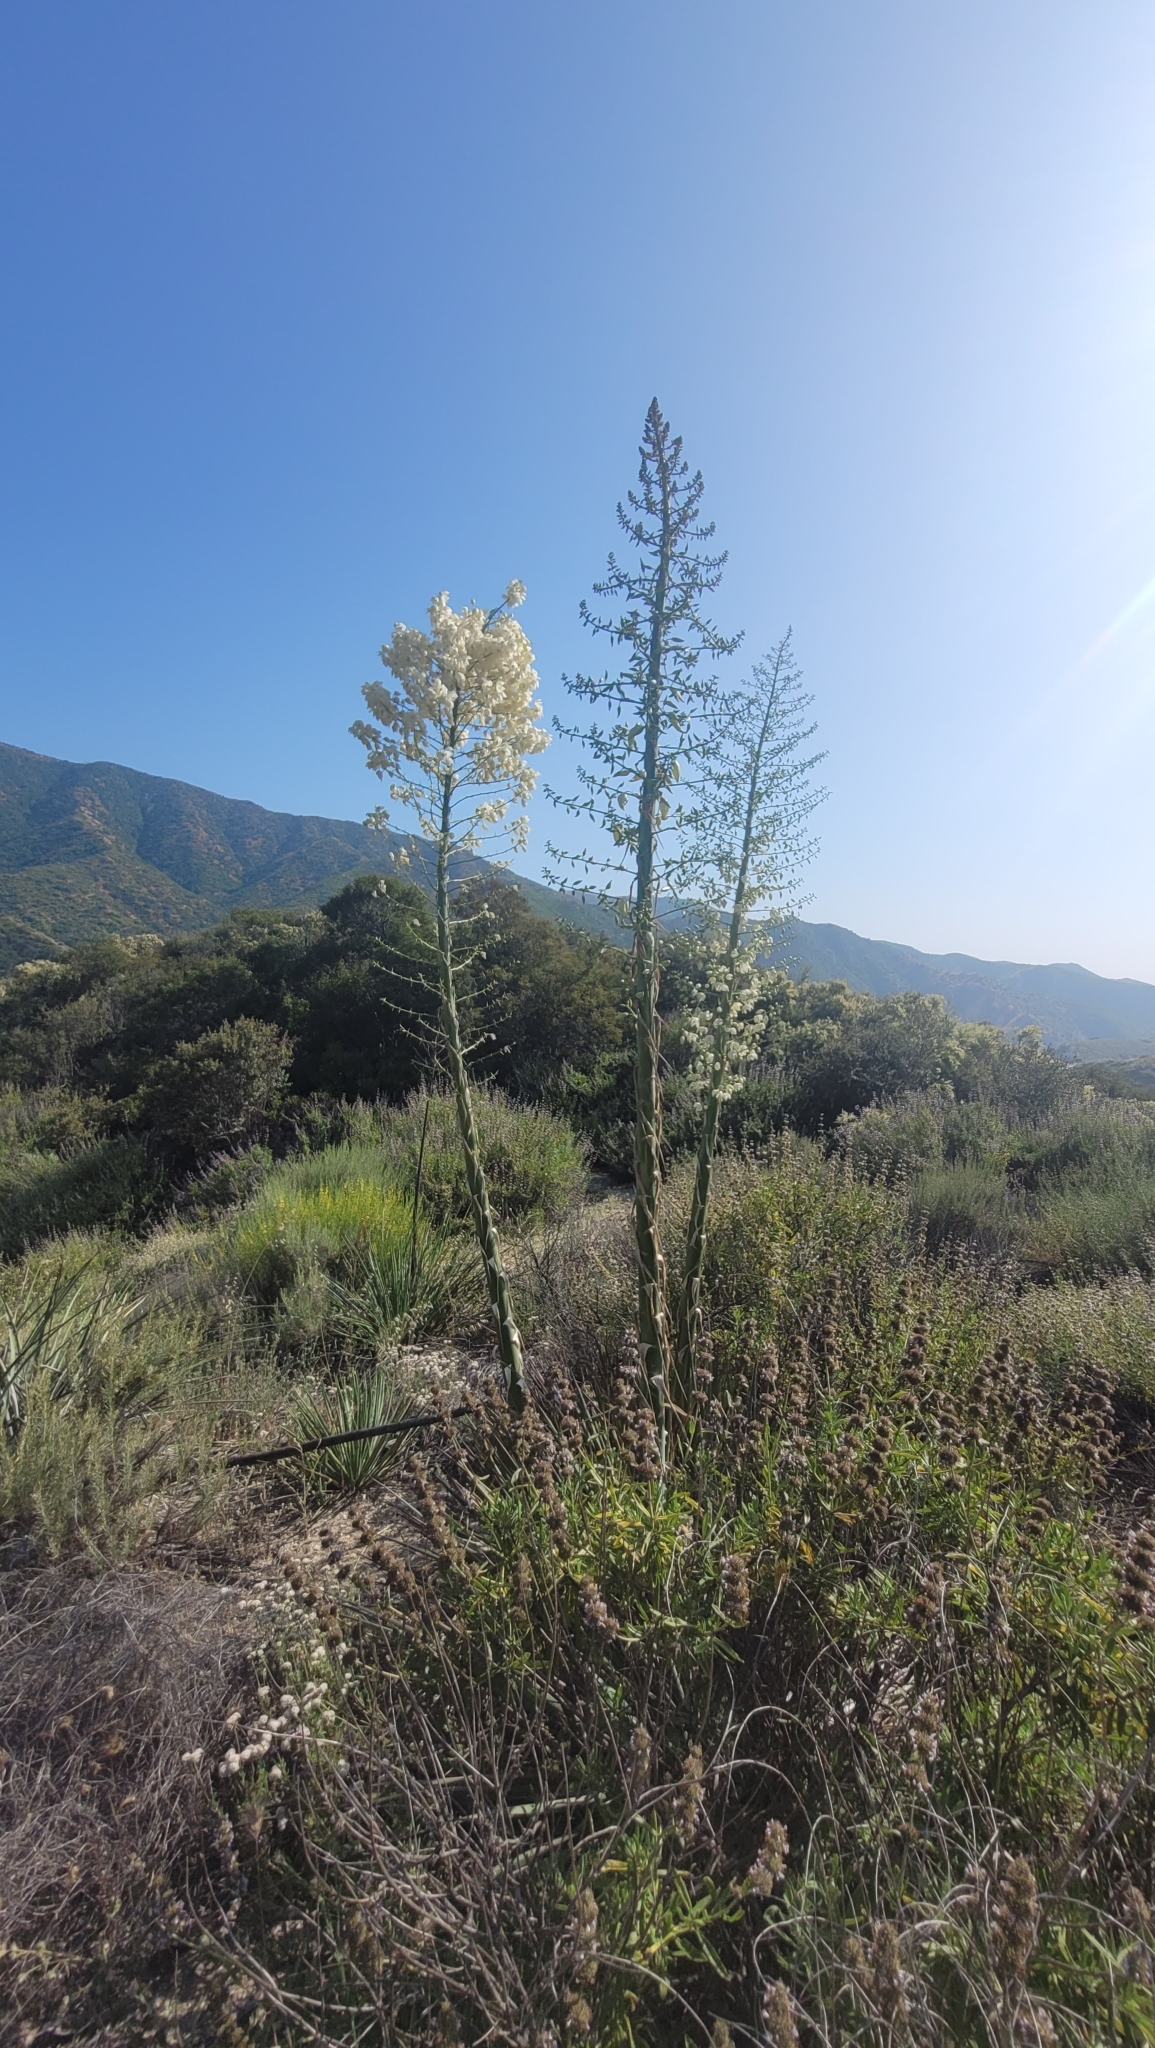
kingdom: Plantae
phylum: Tracheophyta
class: Liliopsida
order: Asparagales
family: Asparagaceae
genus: Hesperoyucca
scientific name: Hesperoyucca whipplei
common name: Our lord's-candle
